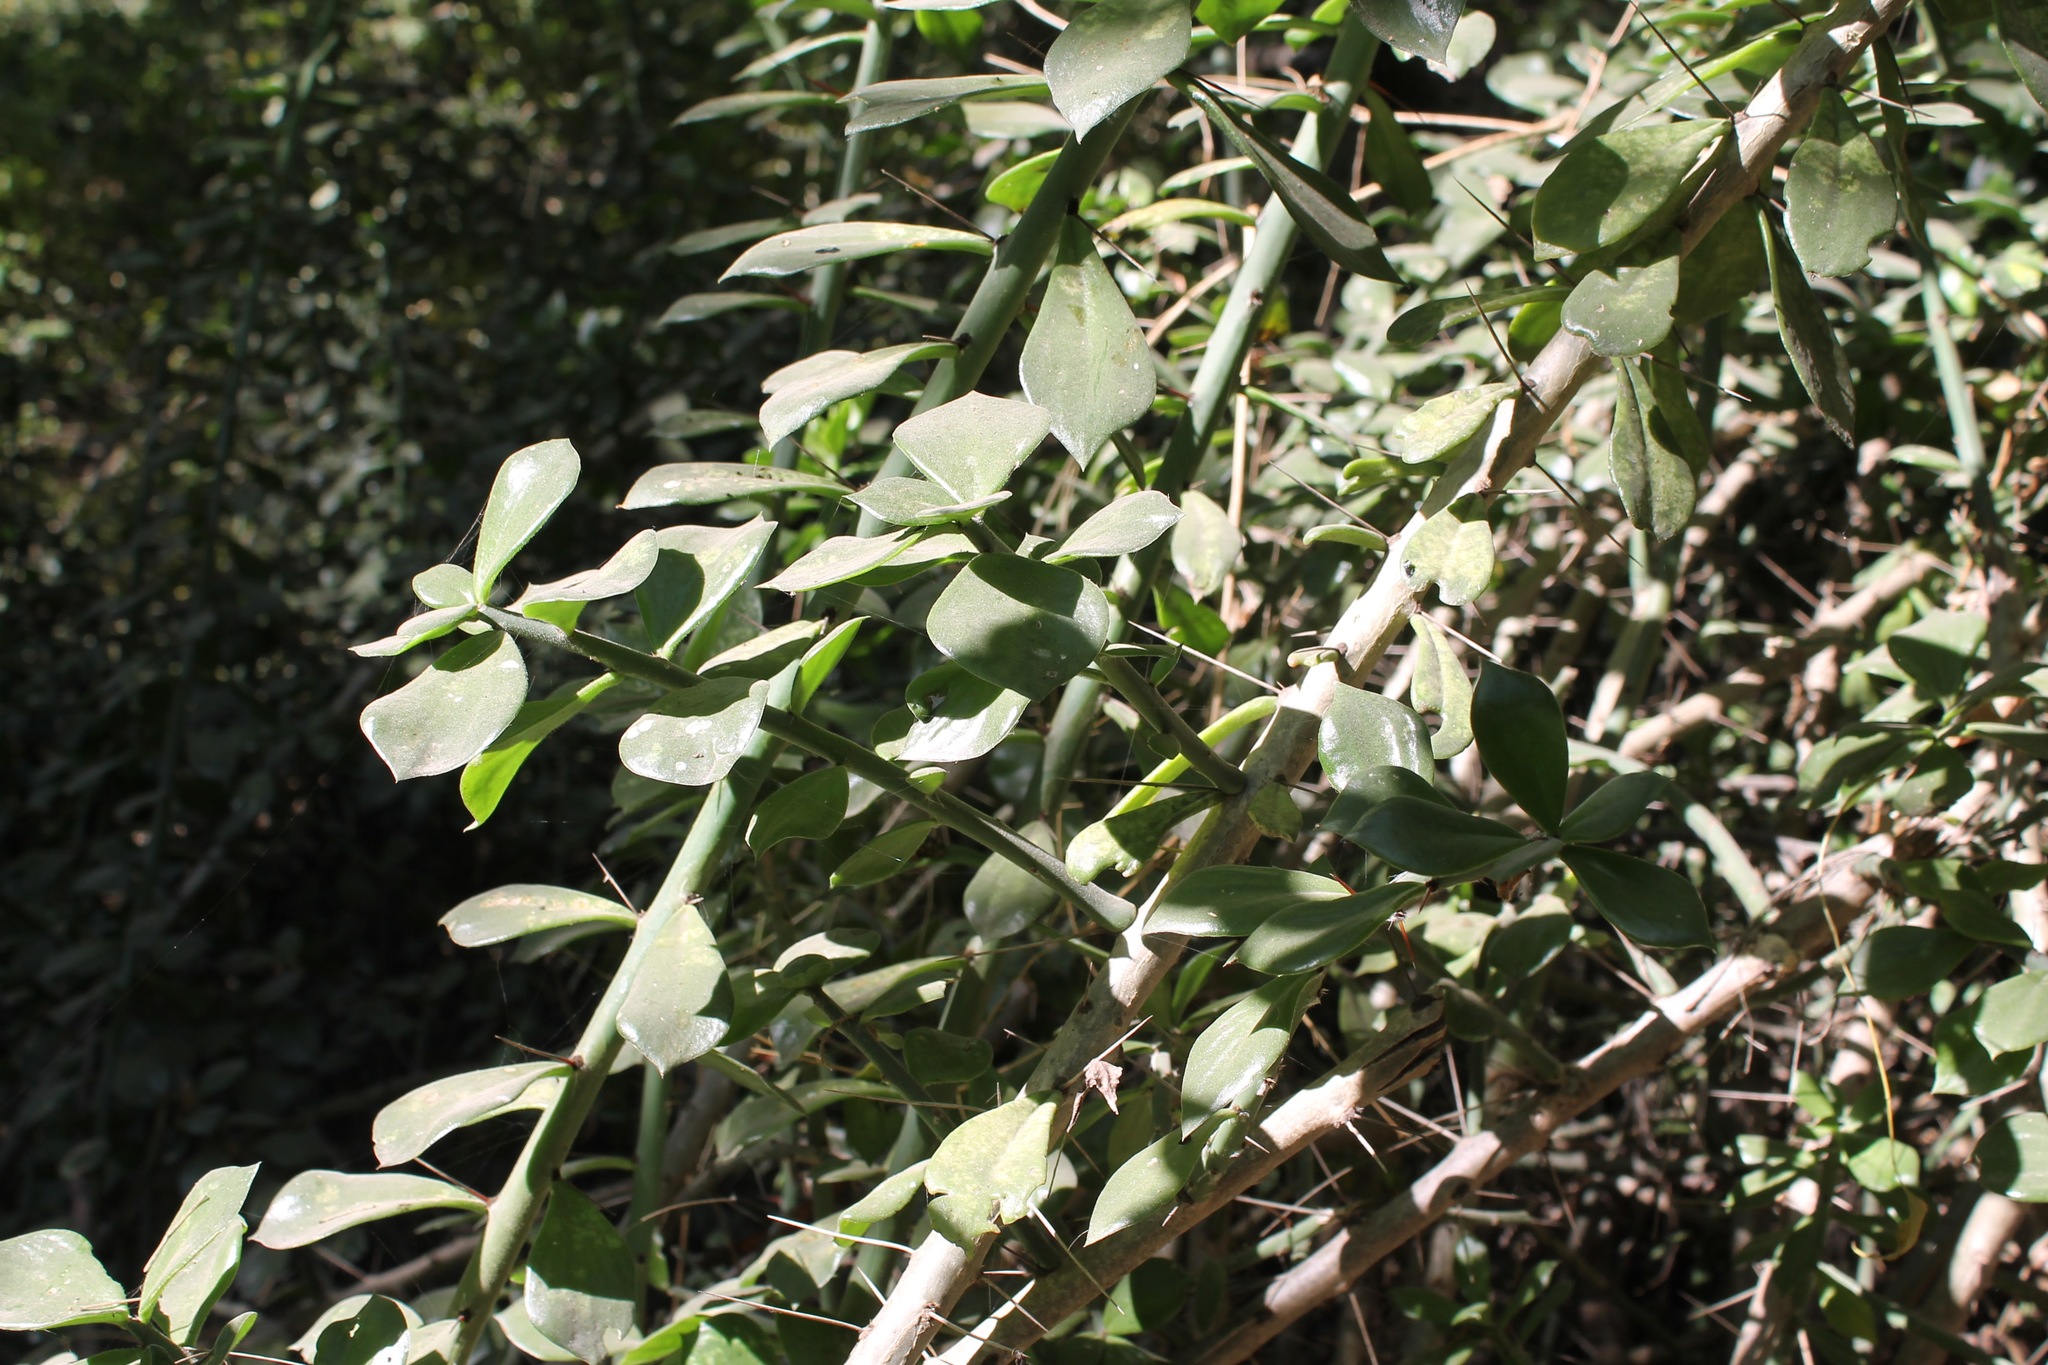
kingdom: Plantae
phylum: Tracheophyta
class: Magnoliopsida
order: Caryophyllales
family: Cactaceae
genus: Pereskiopsis
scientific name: Pereskiopsis diguetii
